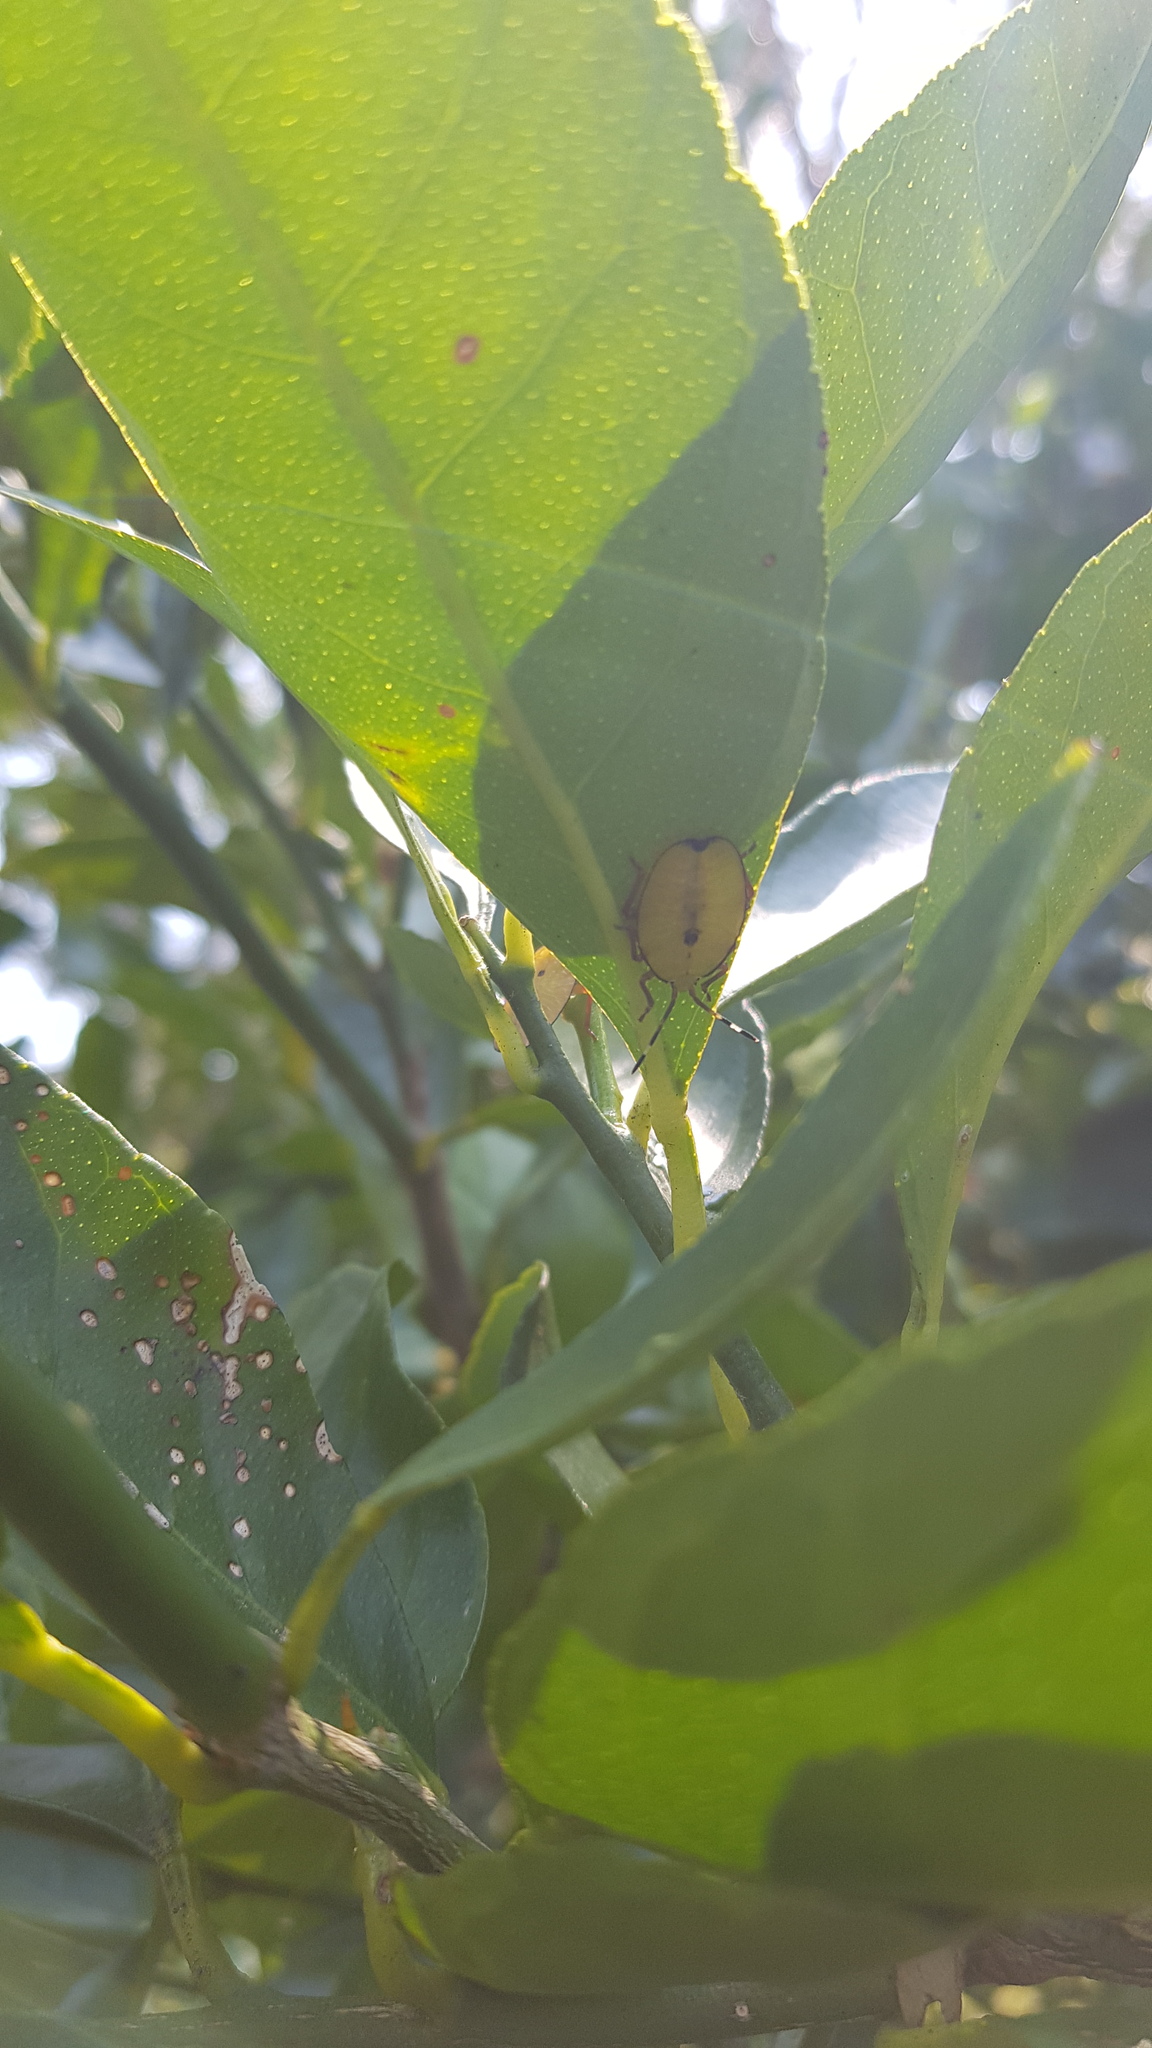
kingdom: Animalia
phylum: Arthropoda
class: Insecta
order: Hemiptera
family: Tessaratomidae
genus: Musgraveia
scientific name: Musgraveia sulciventris
